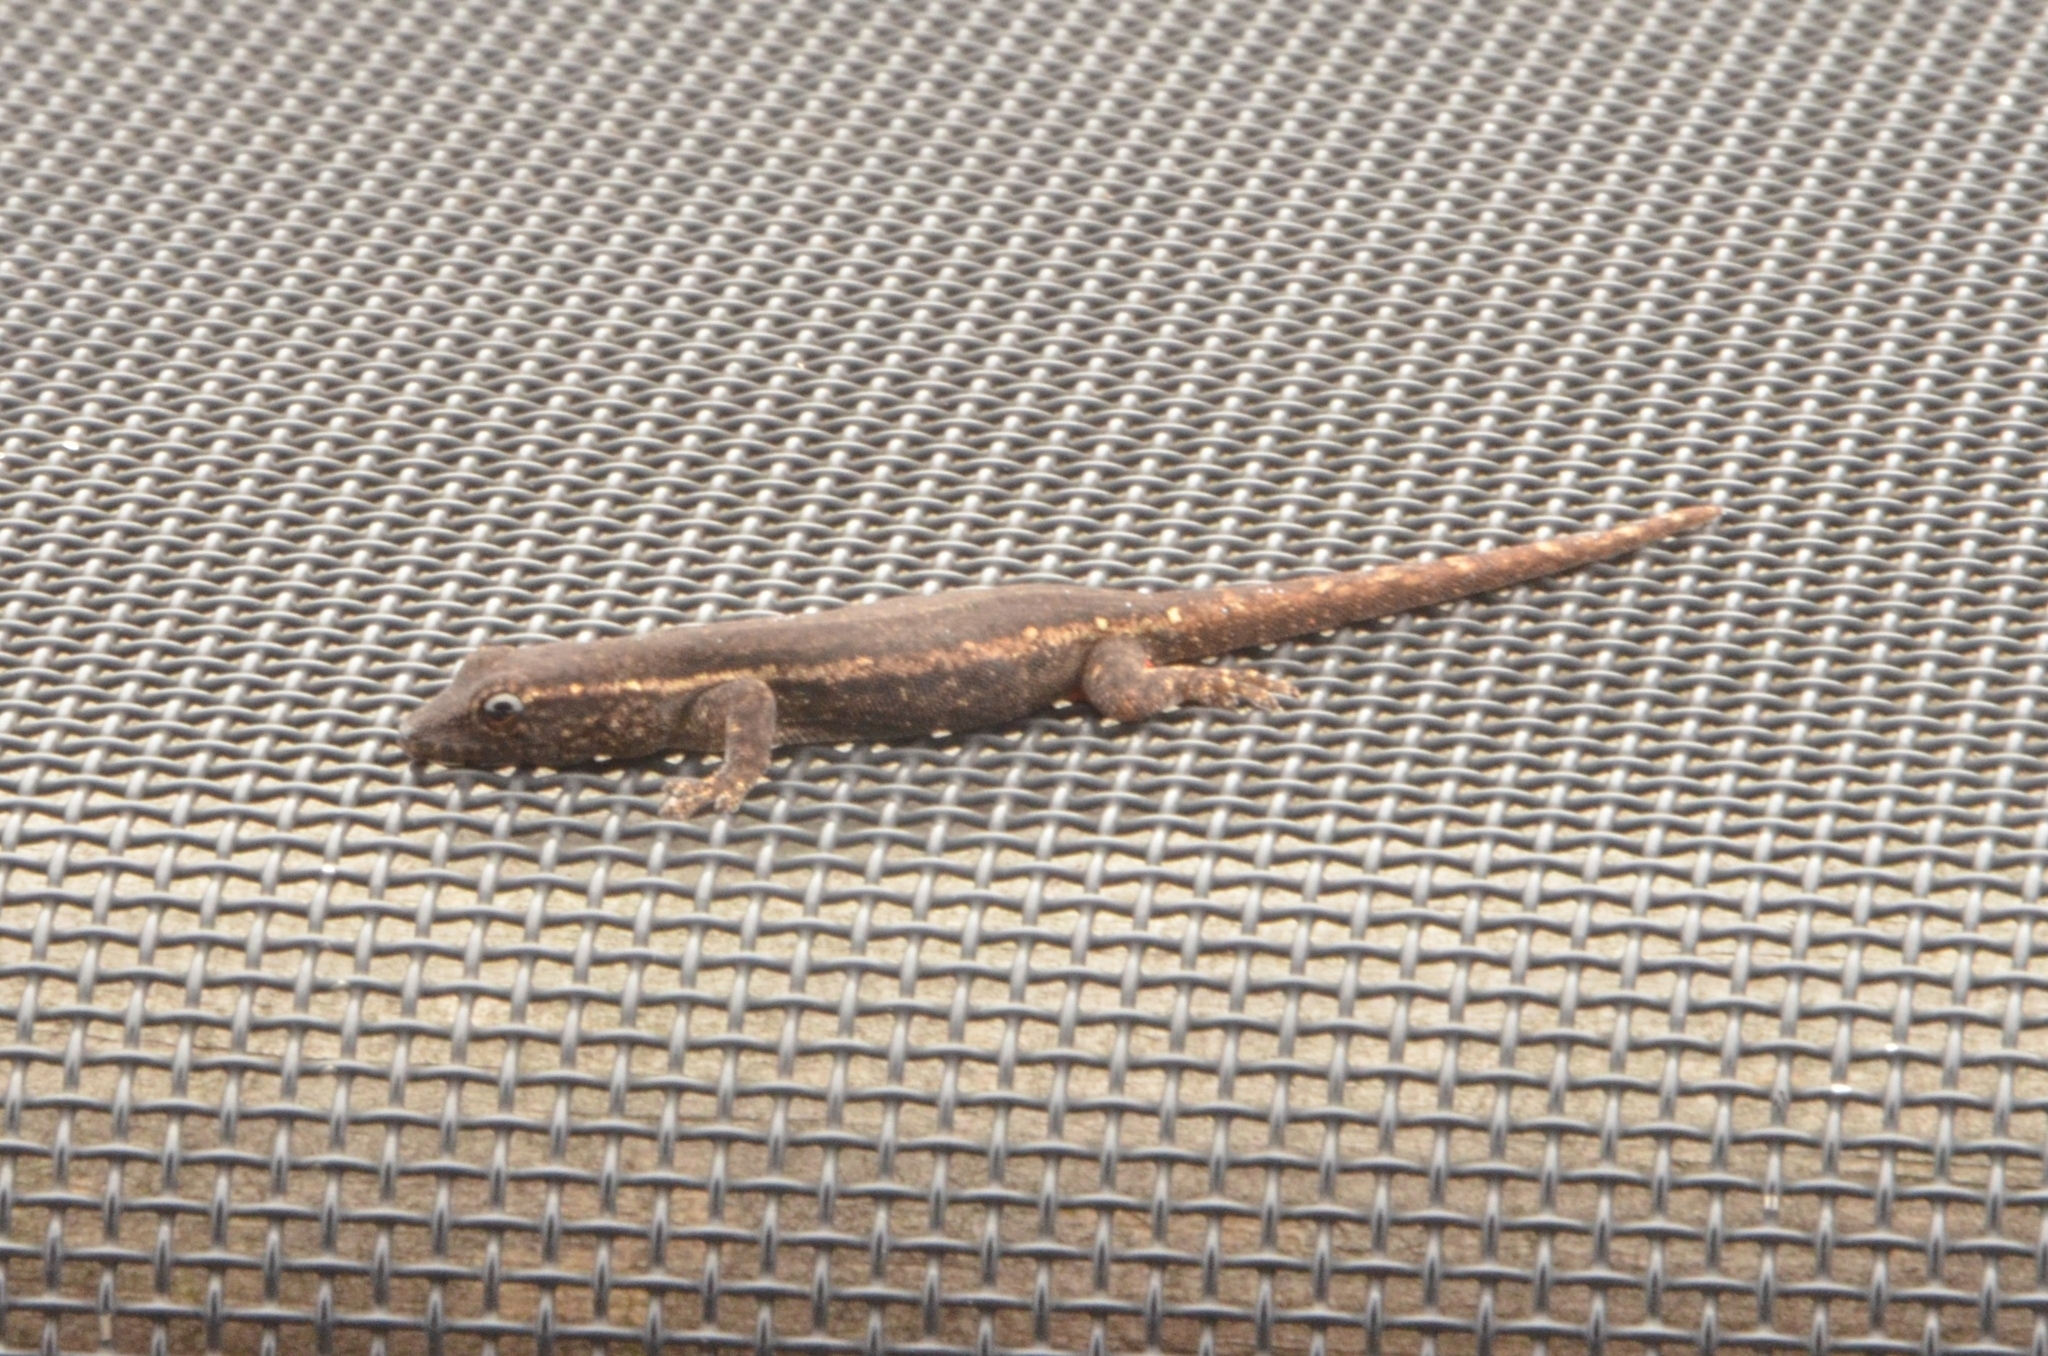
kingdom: Animalia
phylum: Chordata
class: Squamata
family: Gekkonidae
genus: Lygodactylus
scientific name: Lygodactylus capensis
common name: Cape dwarf gecko
